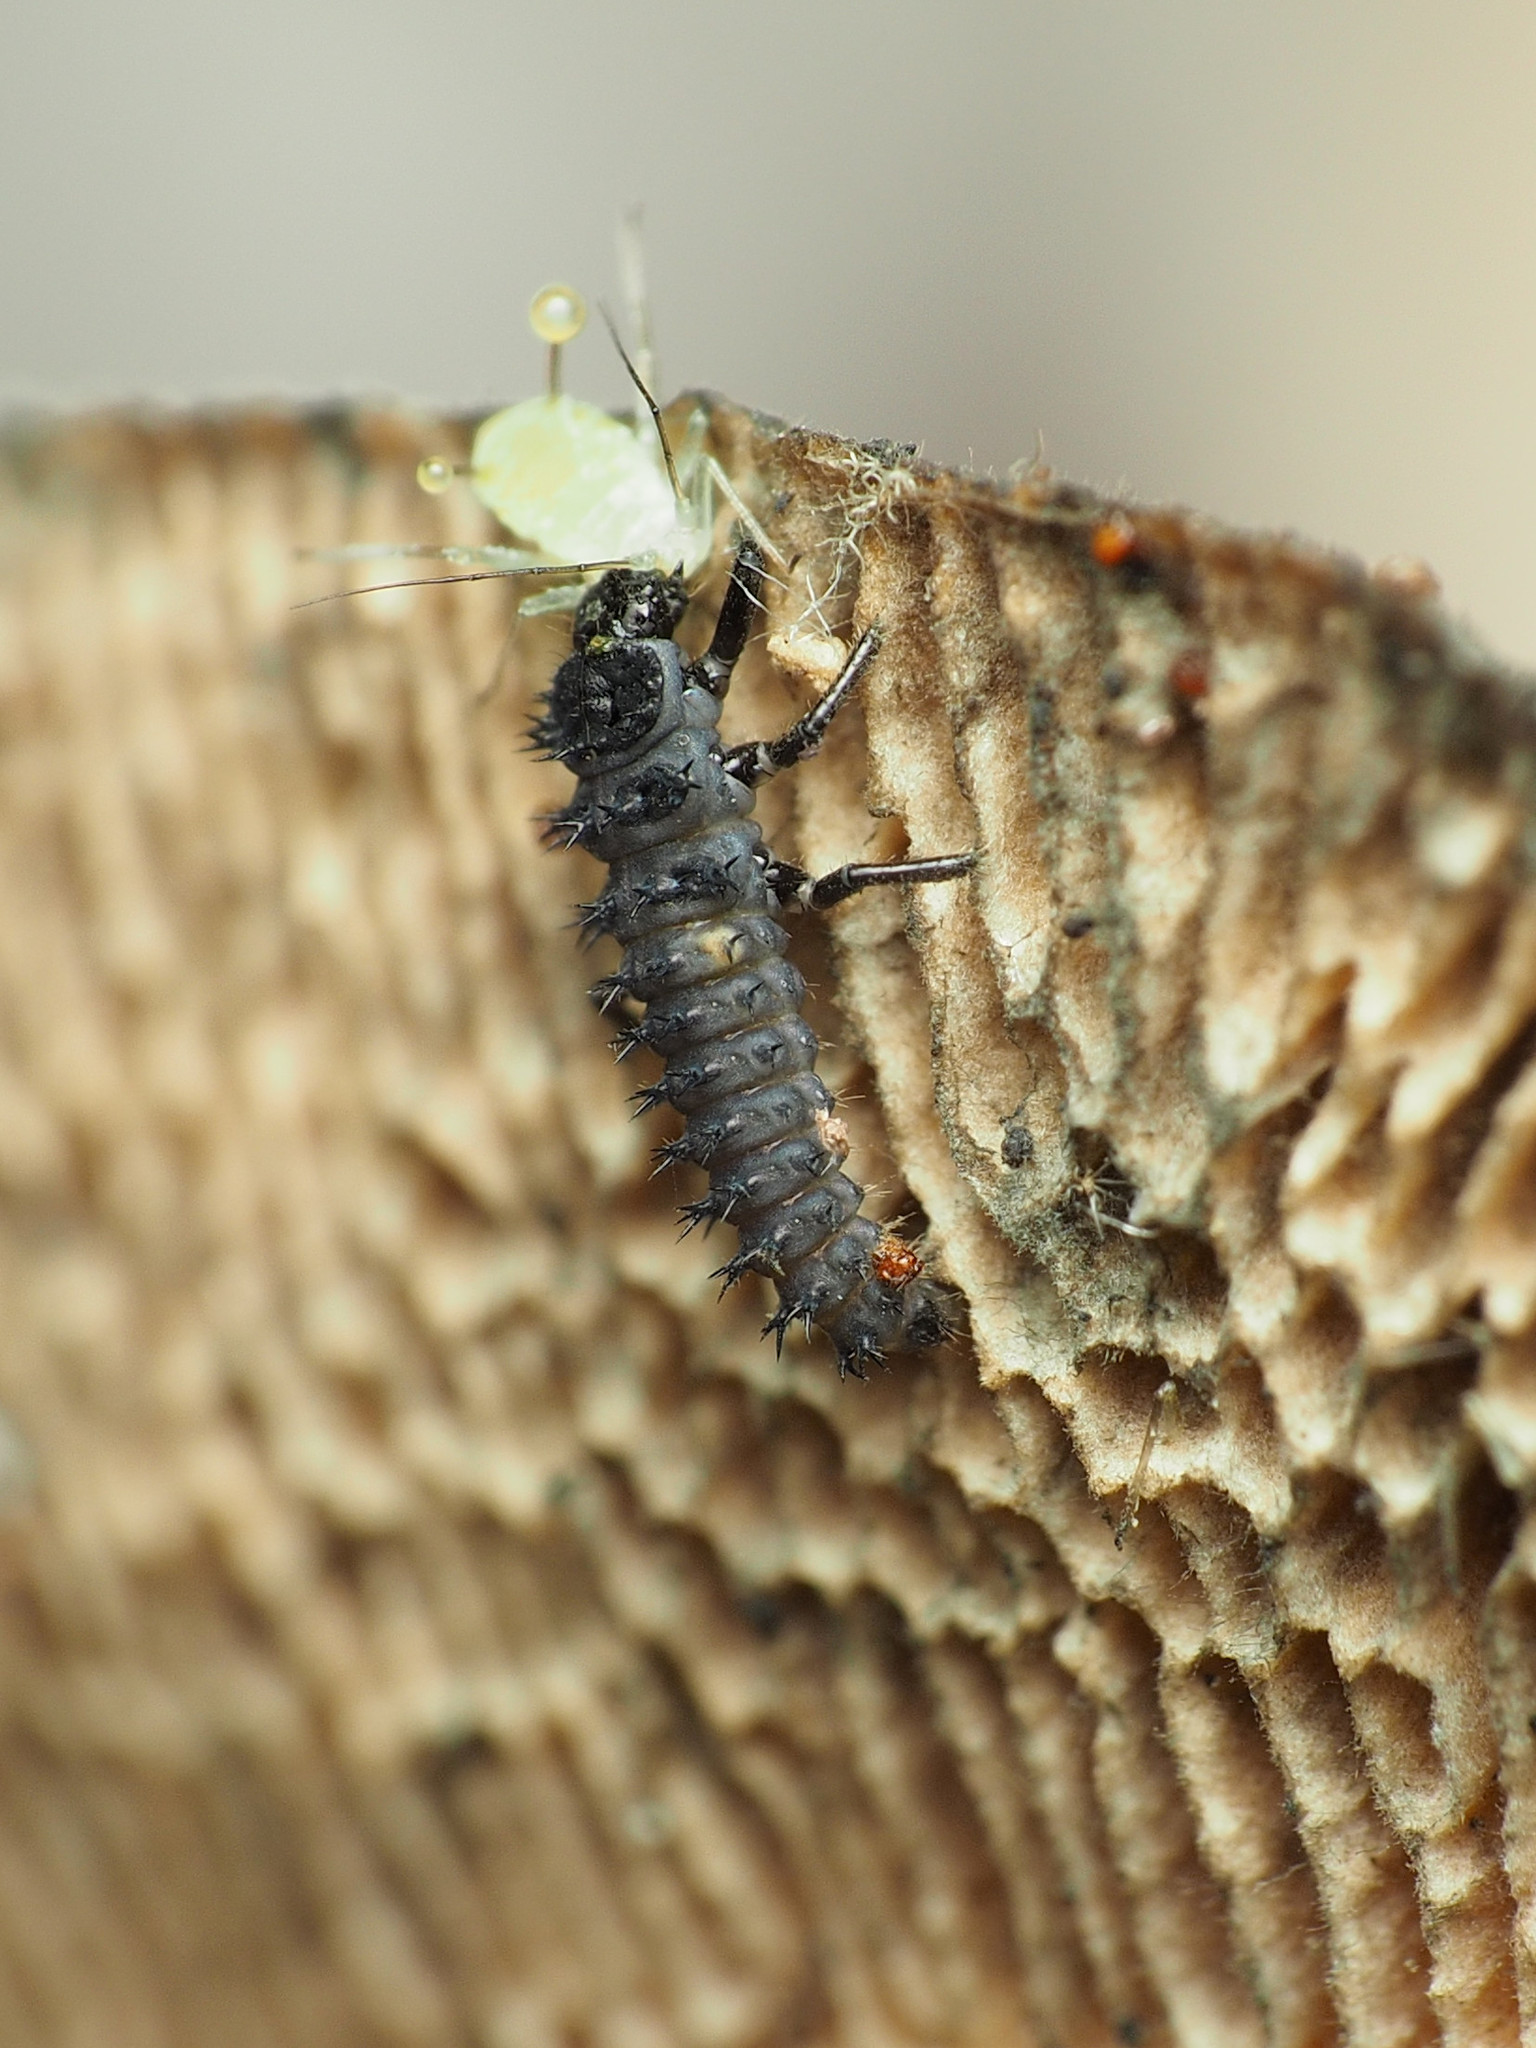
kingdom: Animalia
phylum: Arthropoda
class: Insecta
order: Coleoptera
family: Coccinellidae
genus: Harmonia
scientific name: Harmonia axyridis
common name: Harlequin ladybird
